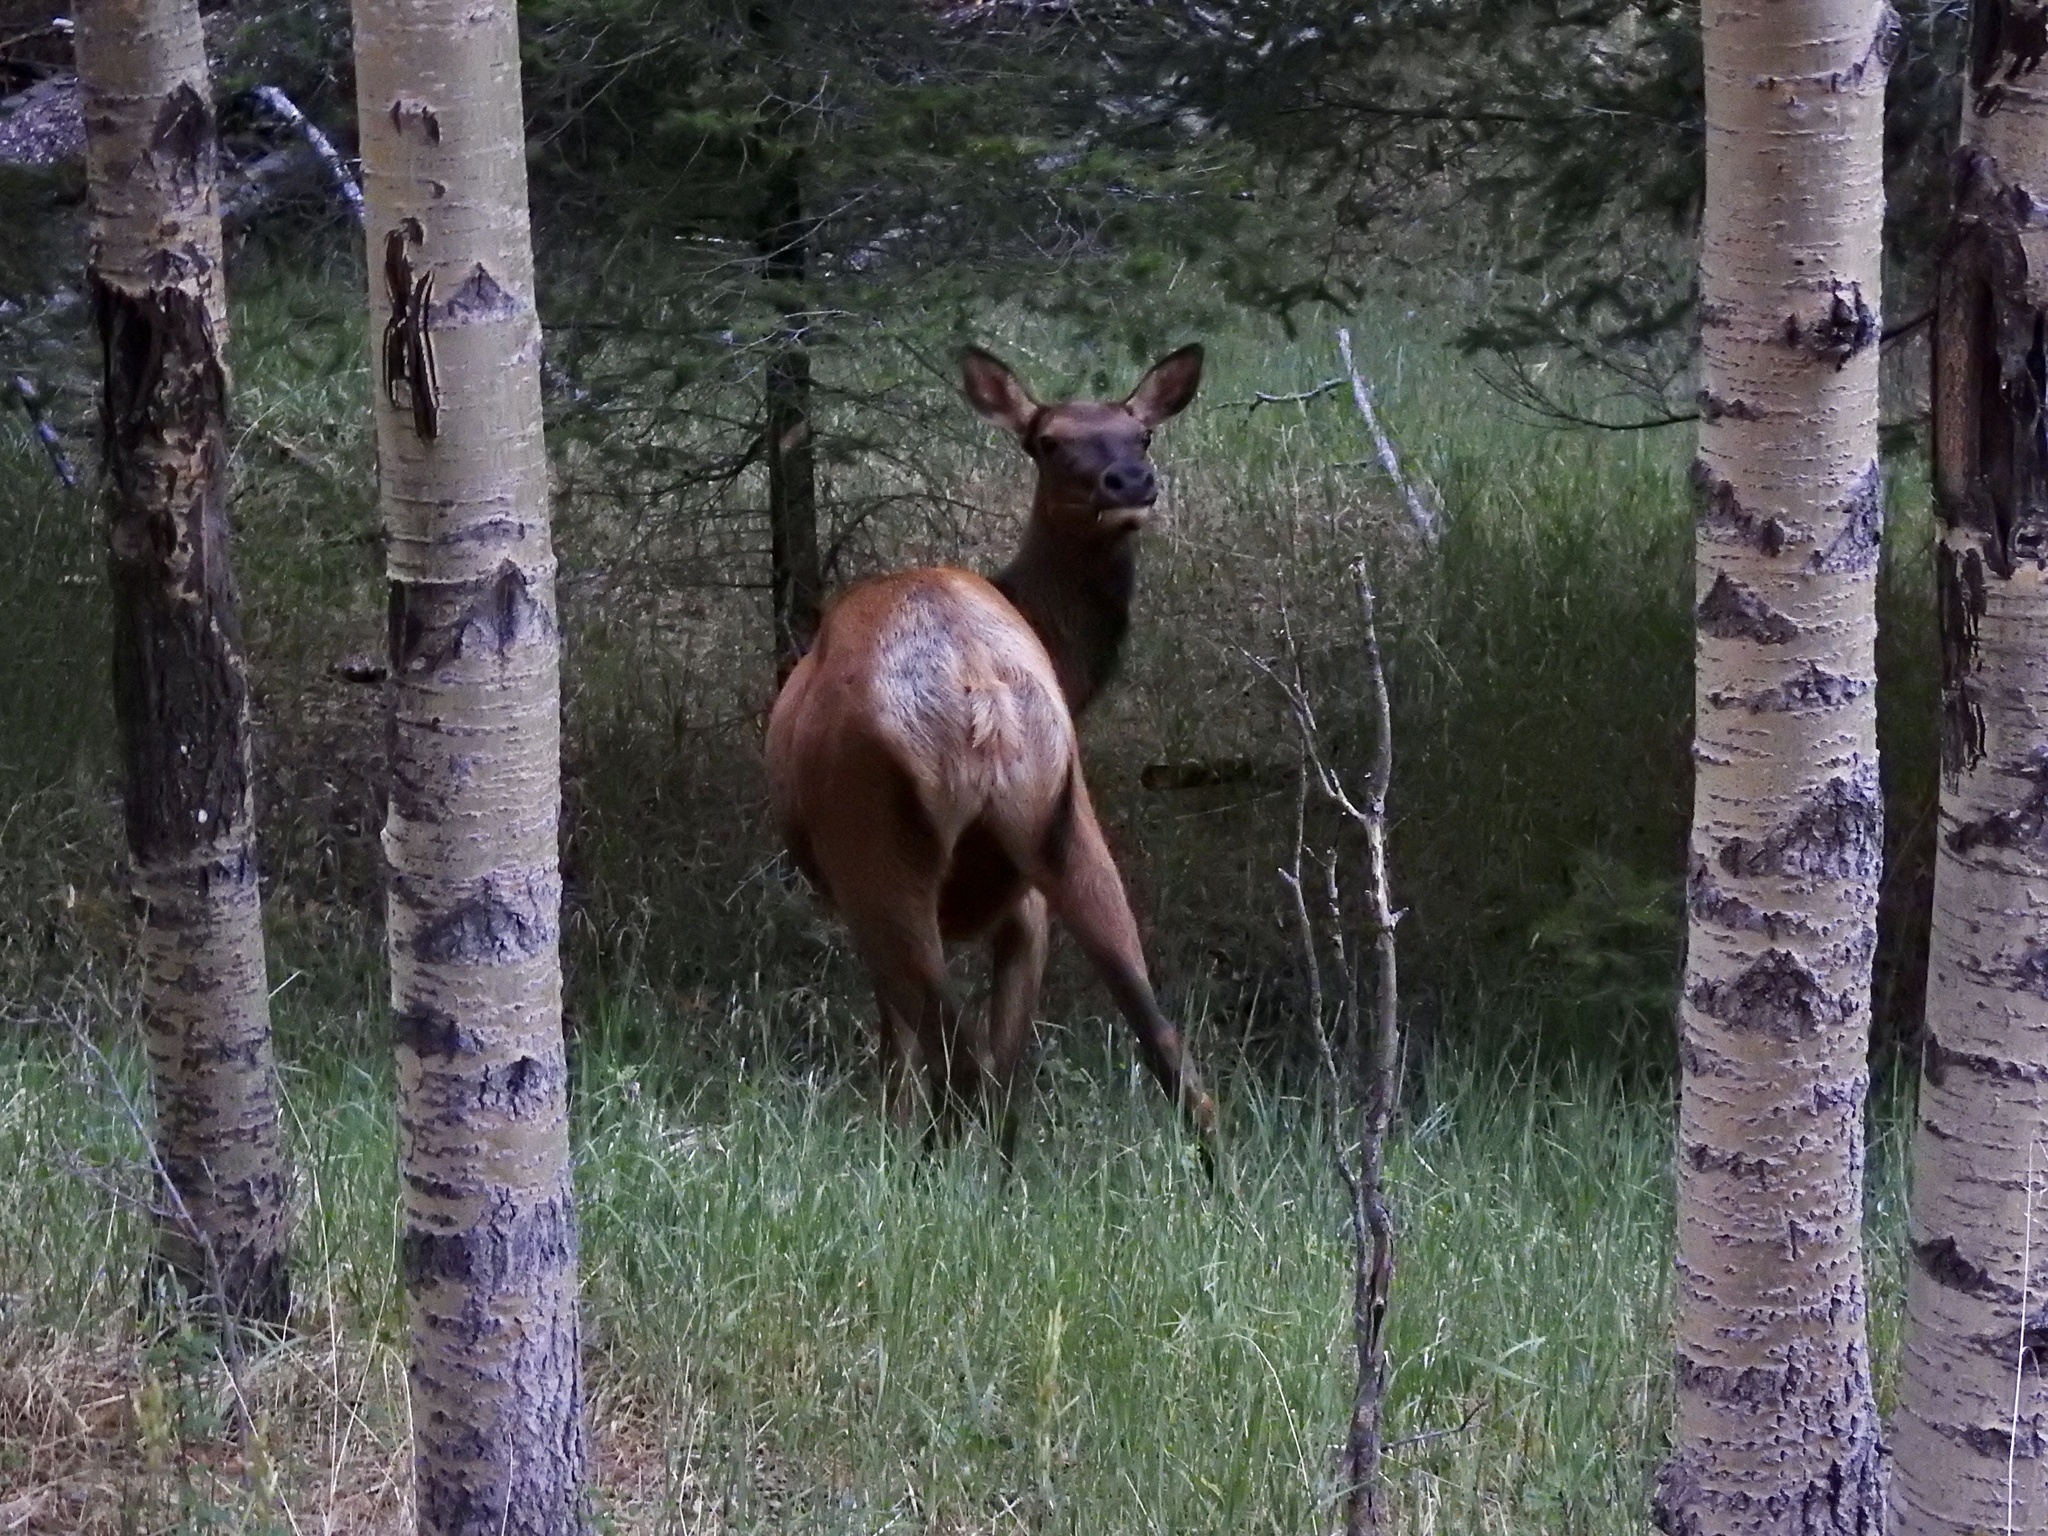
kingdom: Animalia
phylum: Chordata
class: Mammalia
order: Artiodactyla
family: Cervidae
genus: Cervus
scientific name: Cervus elaphus
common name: Red deer
